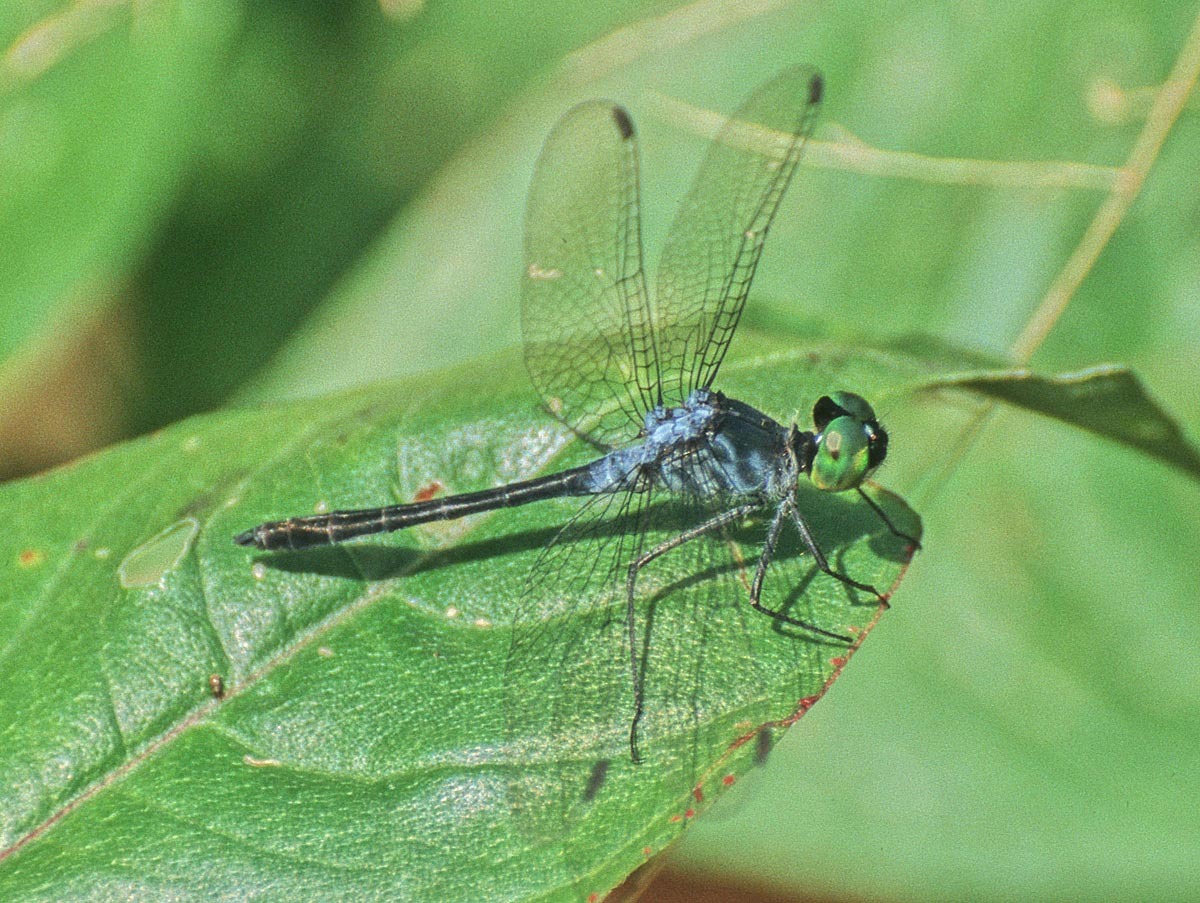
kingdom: Animalia
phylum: Arthropoda
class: Insecta
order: Odonata
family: Libellulidae
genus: Oligoclada
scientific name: Oligoclada stenoptera
